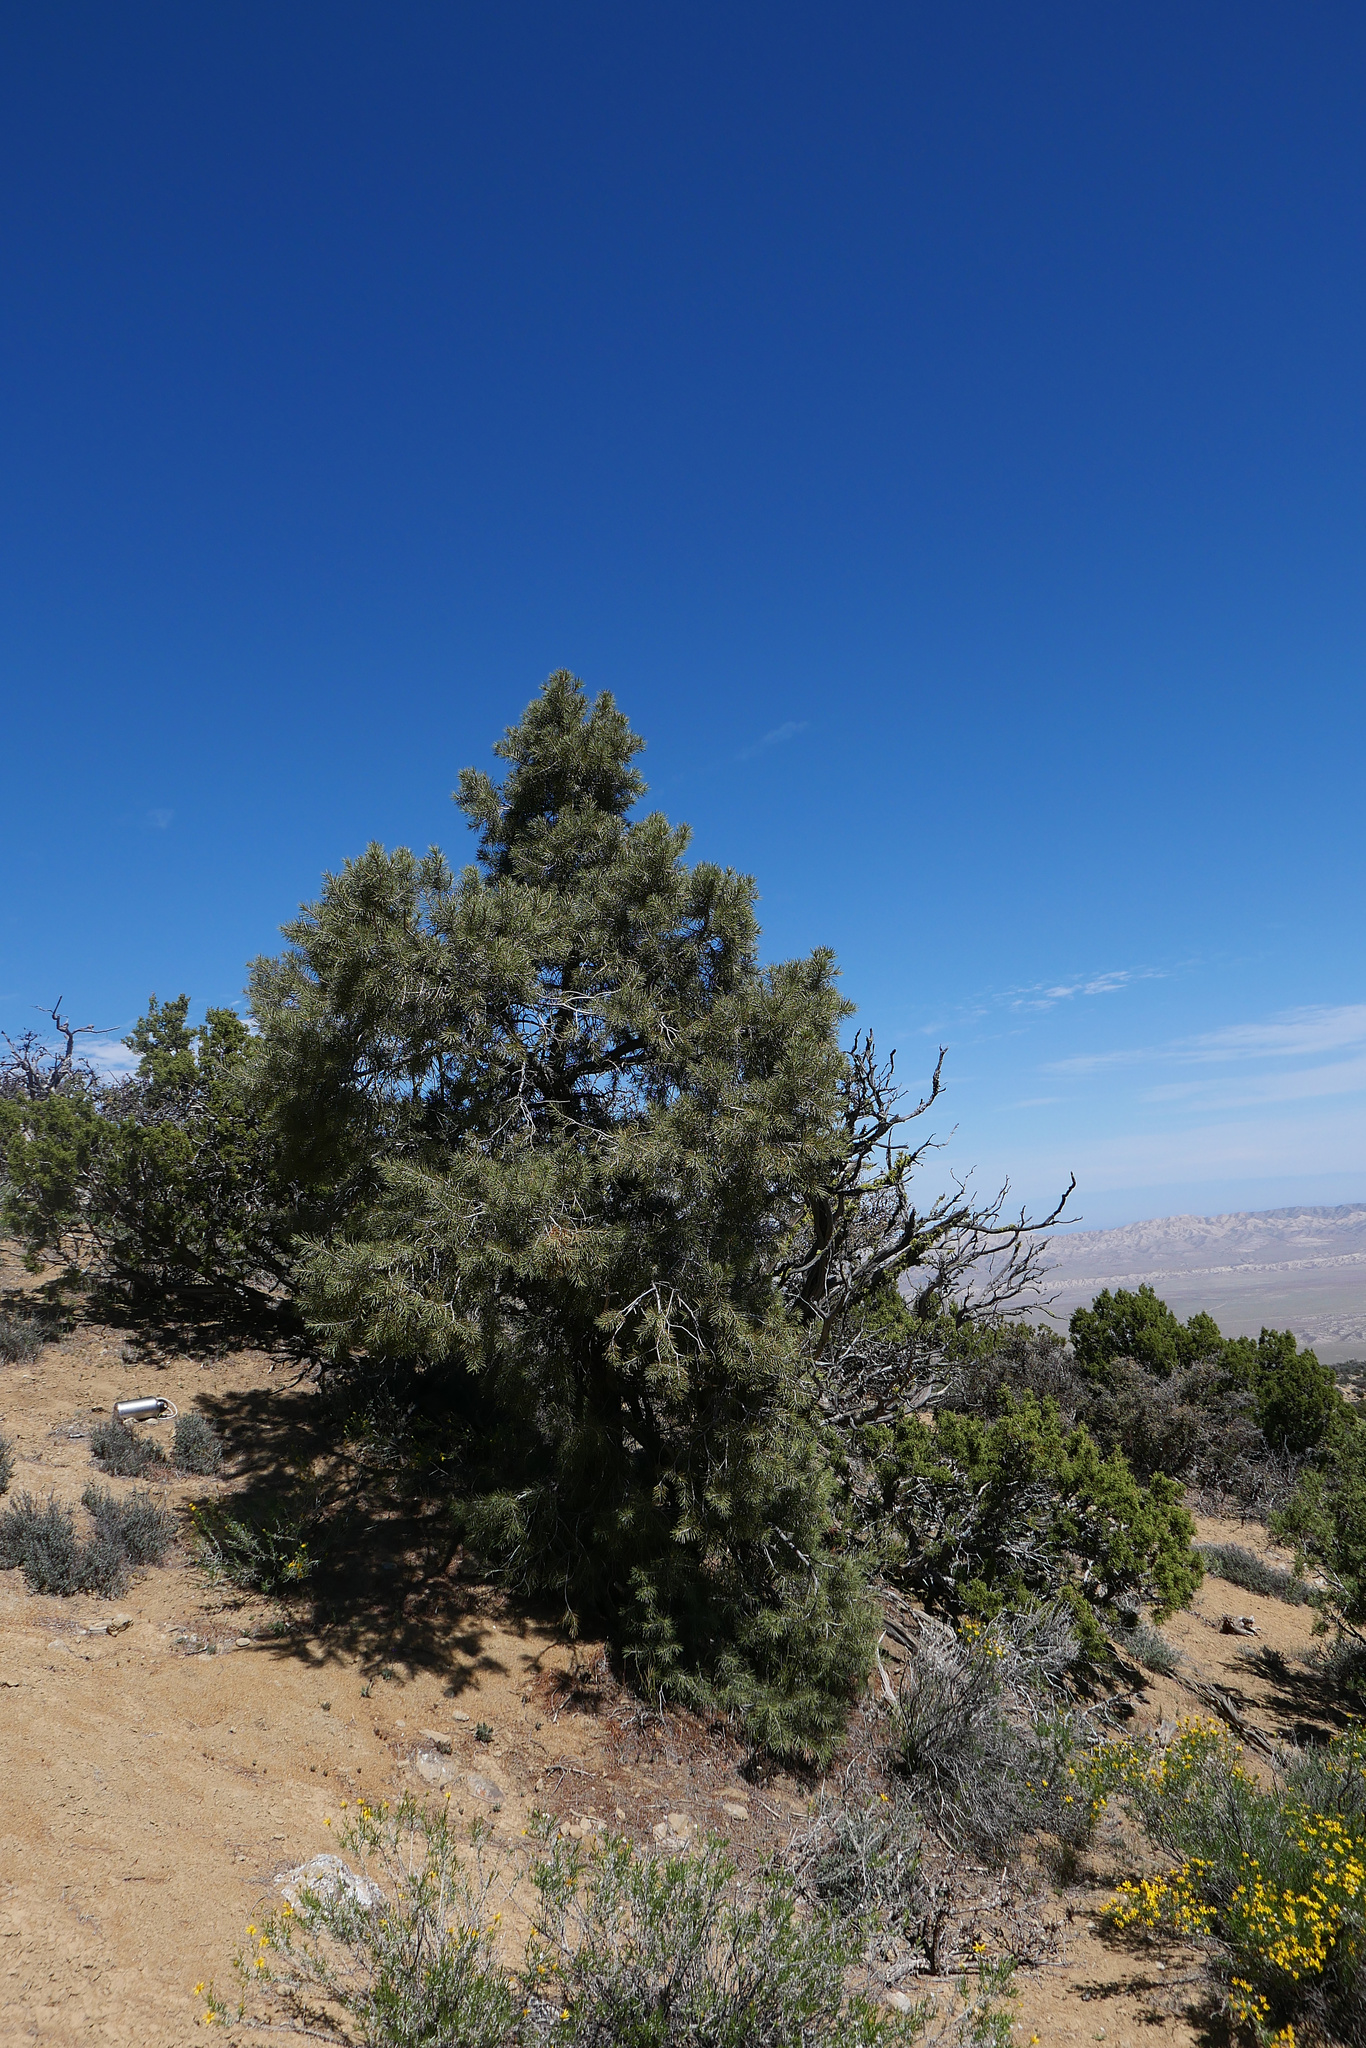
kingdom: Plantae
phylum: Tracheophyta
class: Pinopsida
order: Pinales
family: Pinaceae
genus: Pinus
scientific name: Pinus monophylla
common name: One-leaved nut pine
